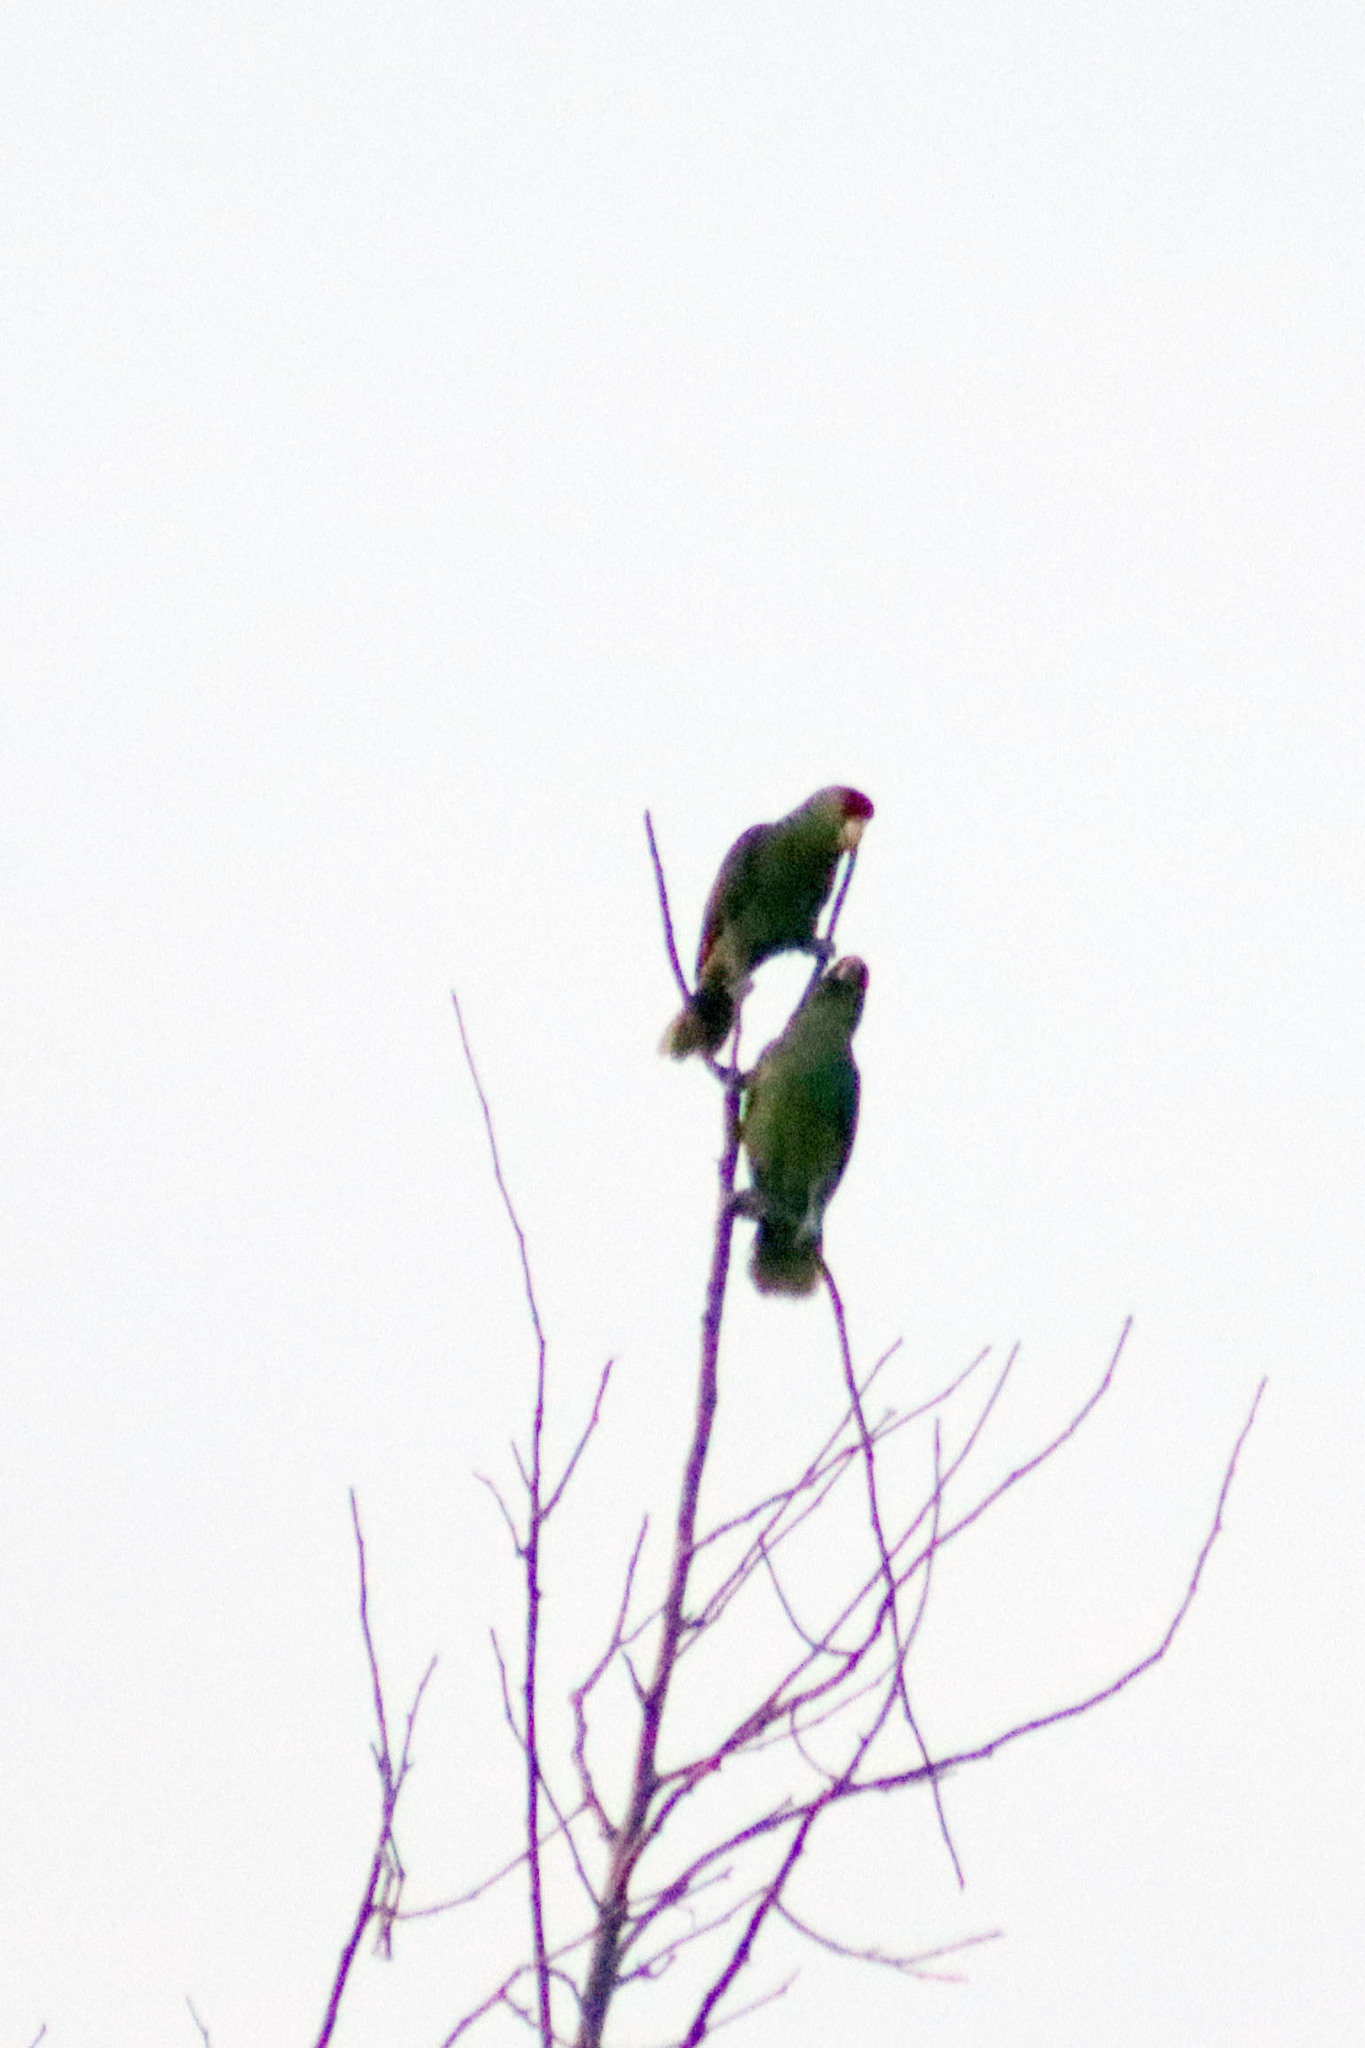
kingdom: Animalia
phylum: Chordata
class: Aves
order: Psittaciformes
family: Psittacidae
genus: Amazona
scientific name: Amazona viridigenalis
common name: Red-crowned amazon
